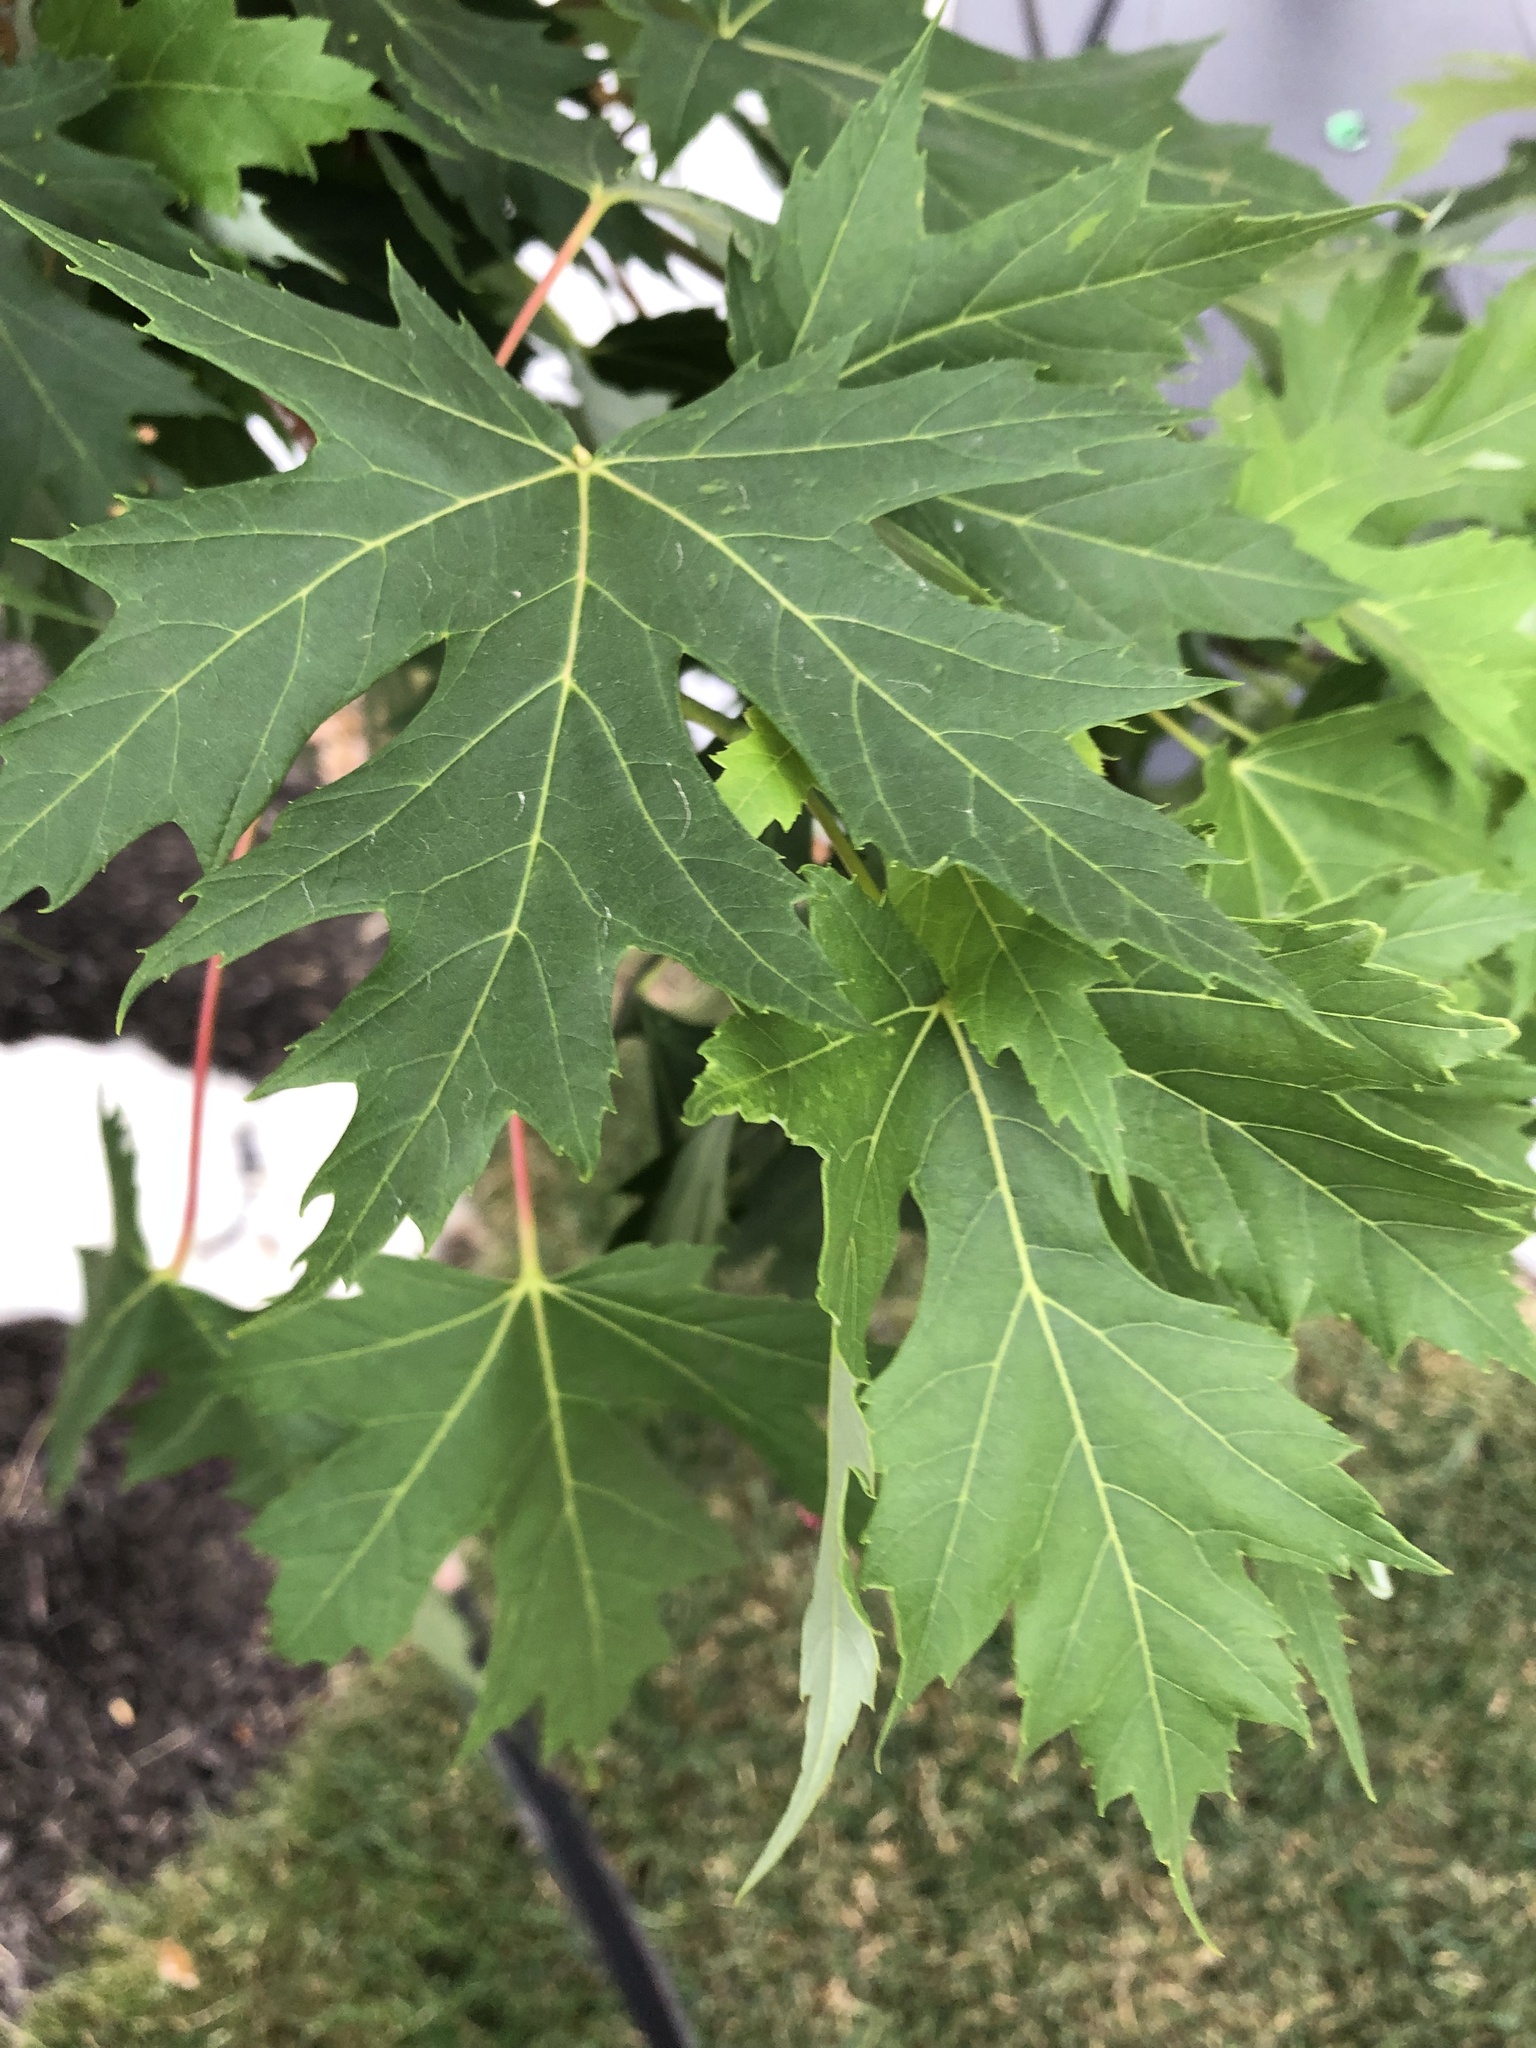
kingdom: Plantae
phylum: Tracheophyta
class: Magnoliopsida
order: Sapindales
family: Sapindaceae
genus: Acer
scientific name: Acer saccharinum
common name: Silver maple
